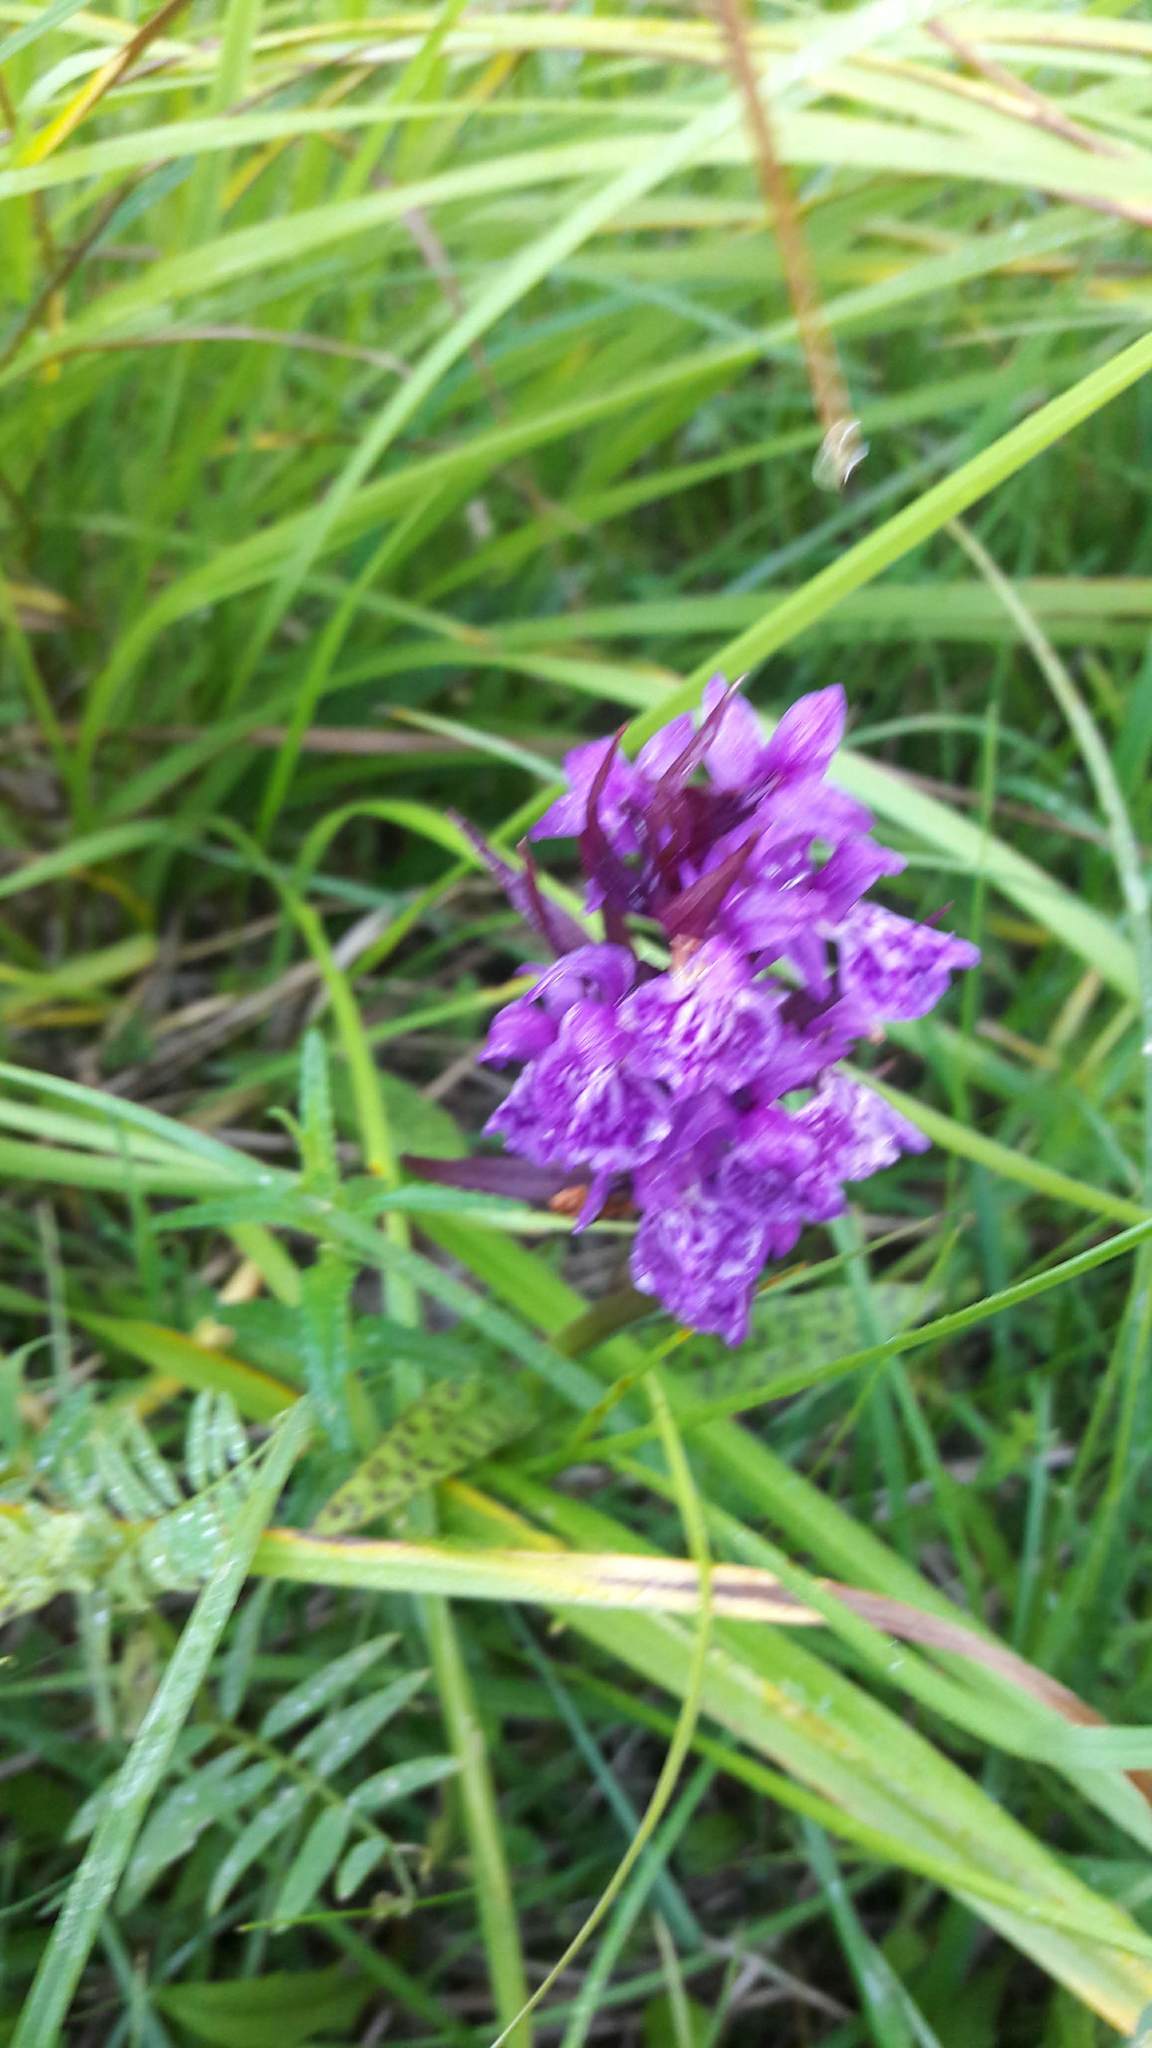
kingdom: Plantae
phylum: Tracheophyta
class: Liliopsida
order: Asparagales
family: Orchidaceae
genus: Dactylorhiza
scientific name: Dactylorhiza majalis
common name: Marsh orchid
